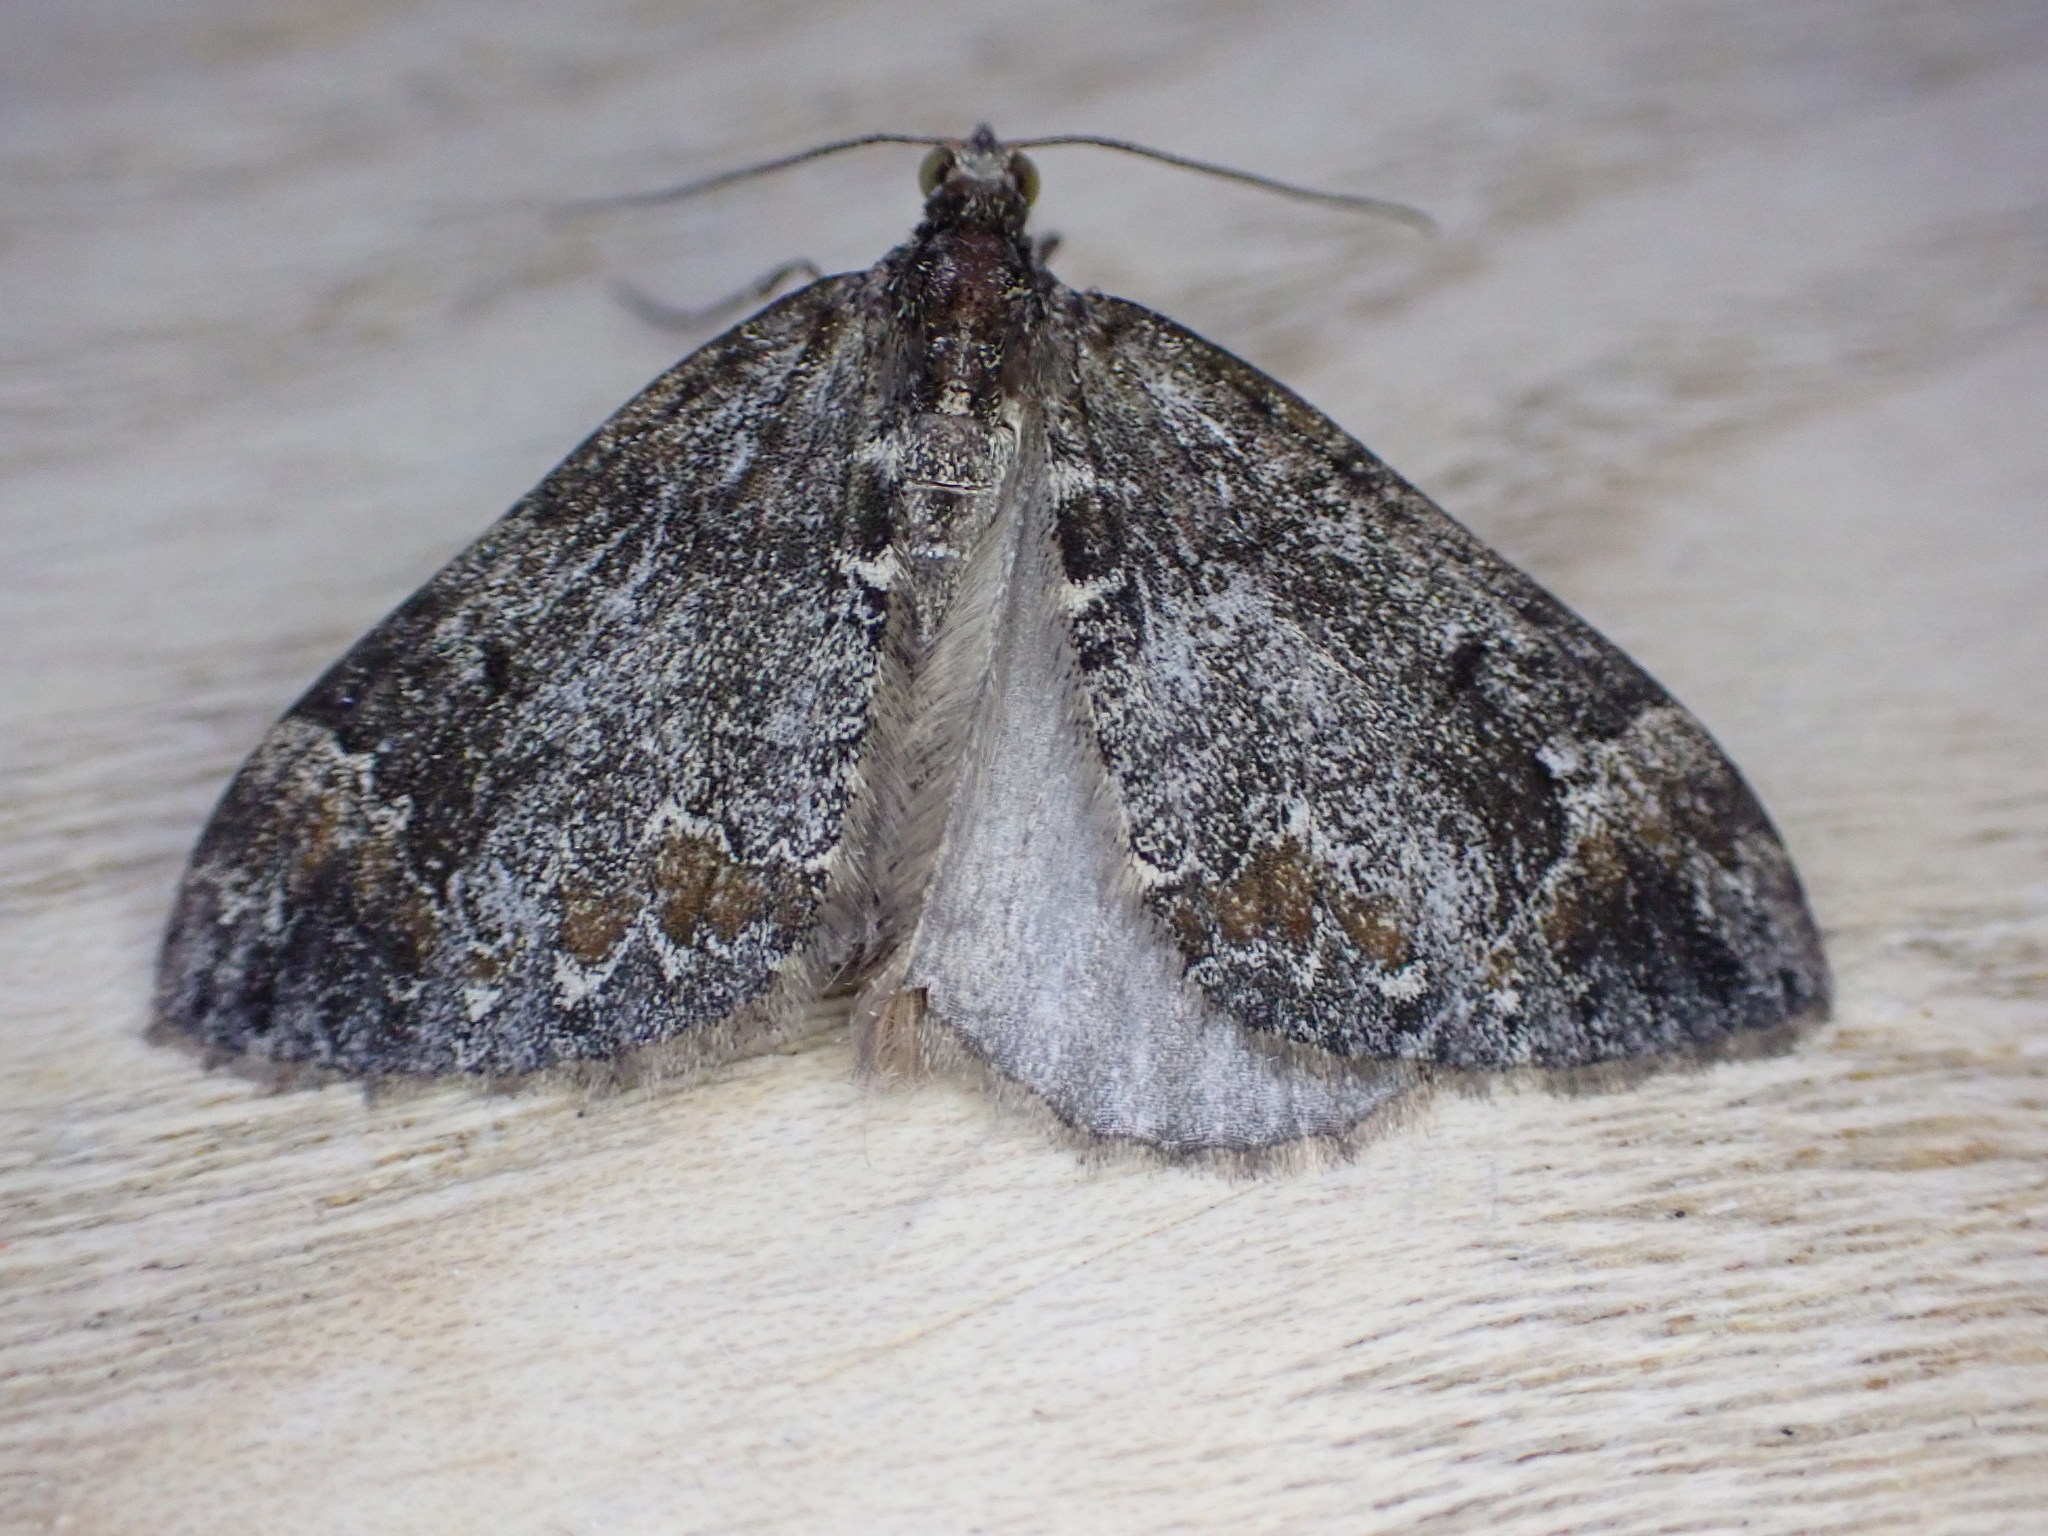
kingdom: Animalia
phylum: Arthropoda
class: Insecta
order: Lepidoptera
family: Geometridae
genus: Dysstroma
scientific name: Dysstroma truncata
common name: Common marbled carpet
